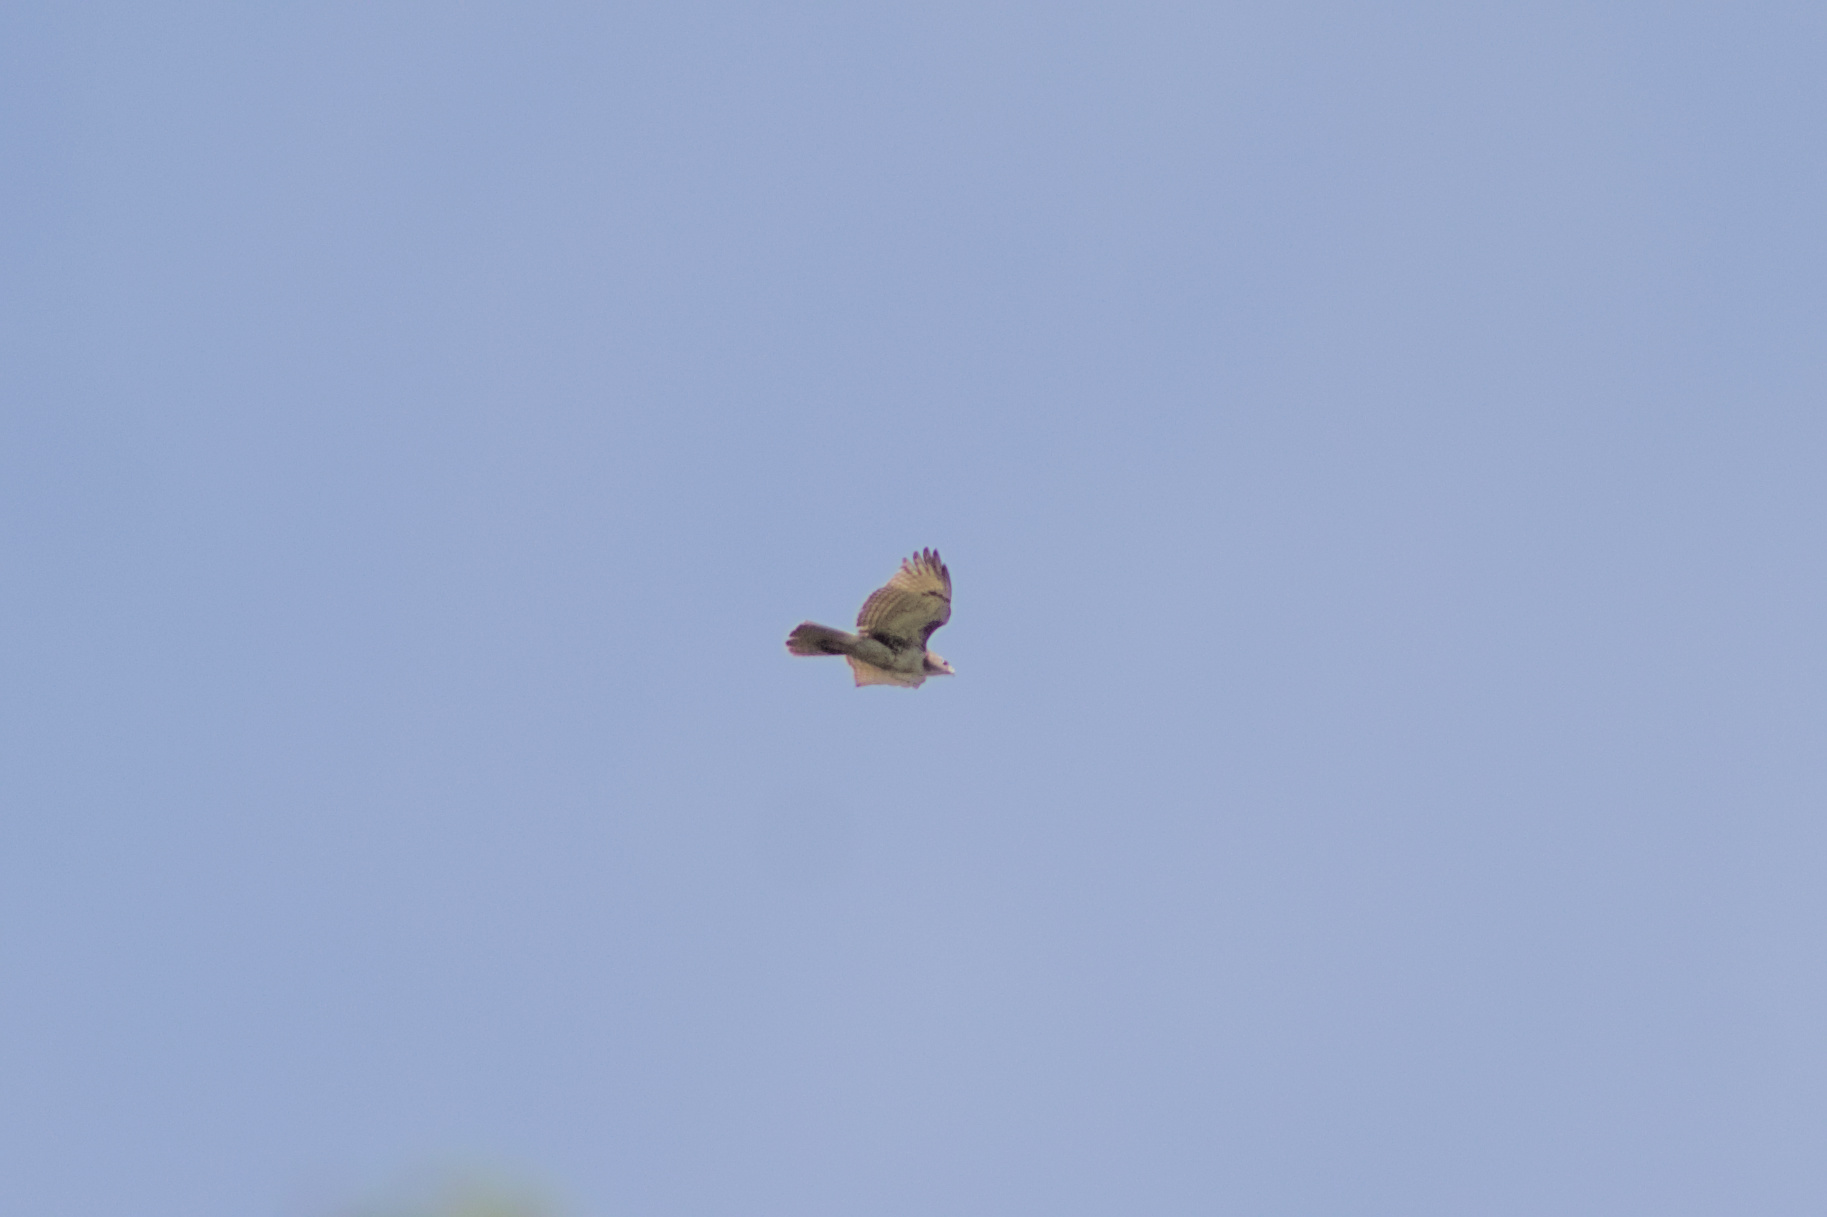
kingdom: Animalia
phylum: Chordata
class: Aves
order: Accipitriformes
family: Accipitridae
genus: Buteo
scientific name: Buteo jamaicensis
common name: Red-tailed hawk
